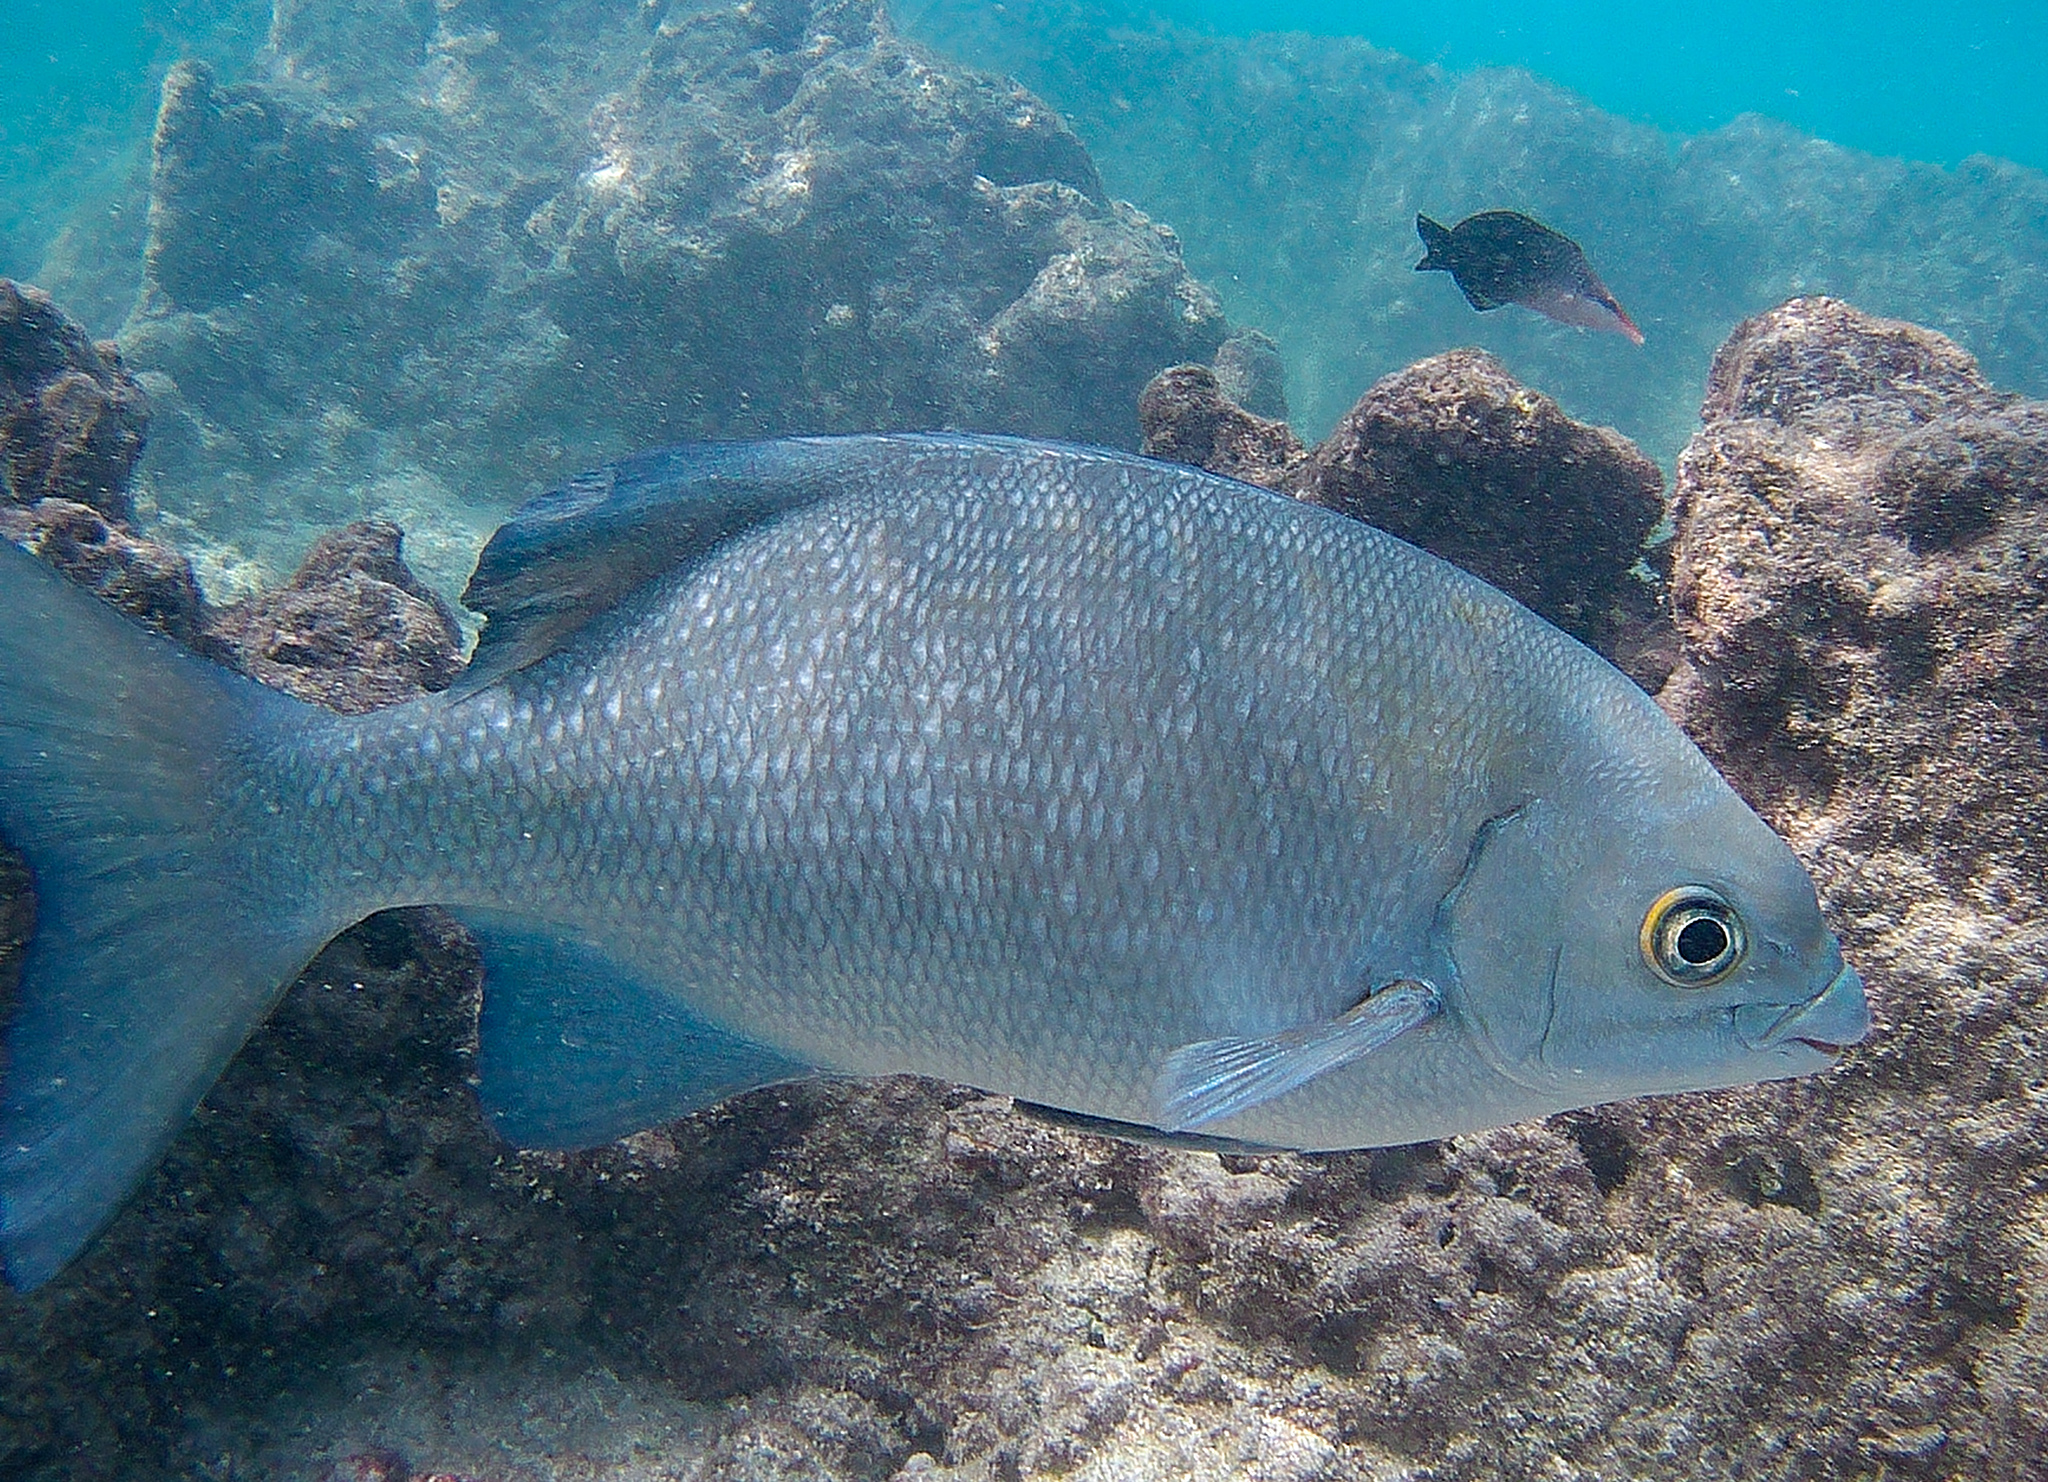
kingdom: Animalia
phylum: Chordata
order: Perciformes
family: Kyphosidae
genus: Kyphosus
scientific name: Kyphosus cinerascens
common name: Topsail drummer
